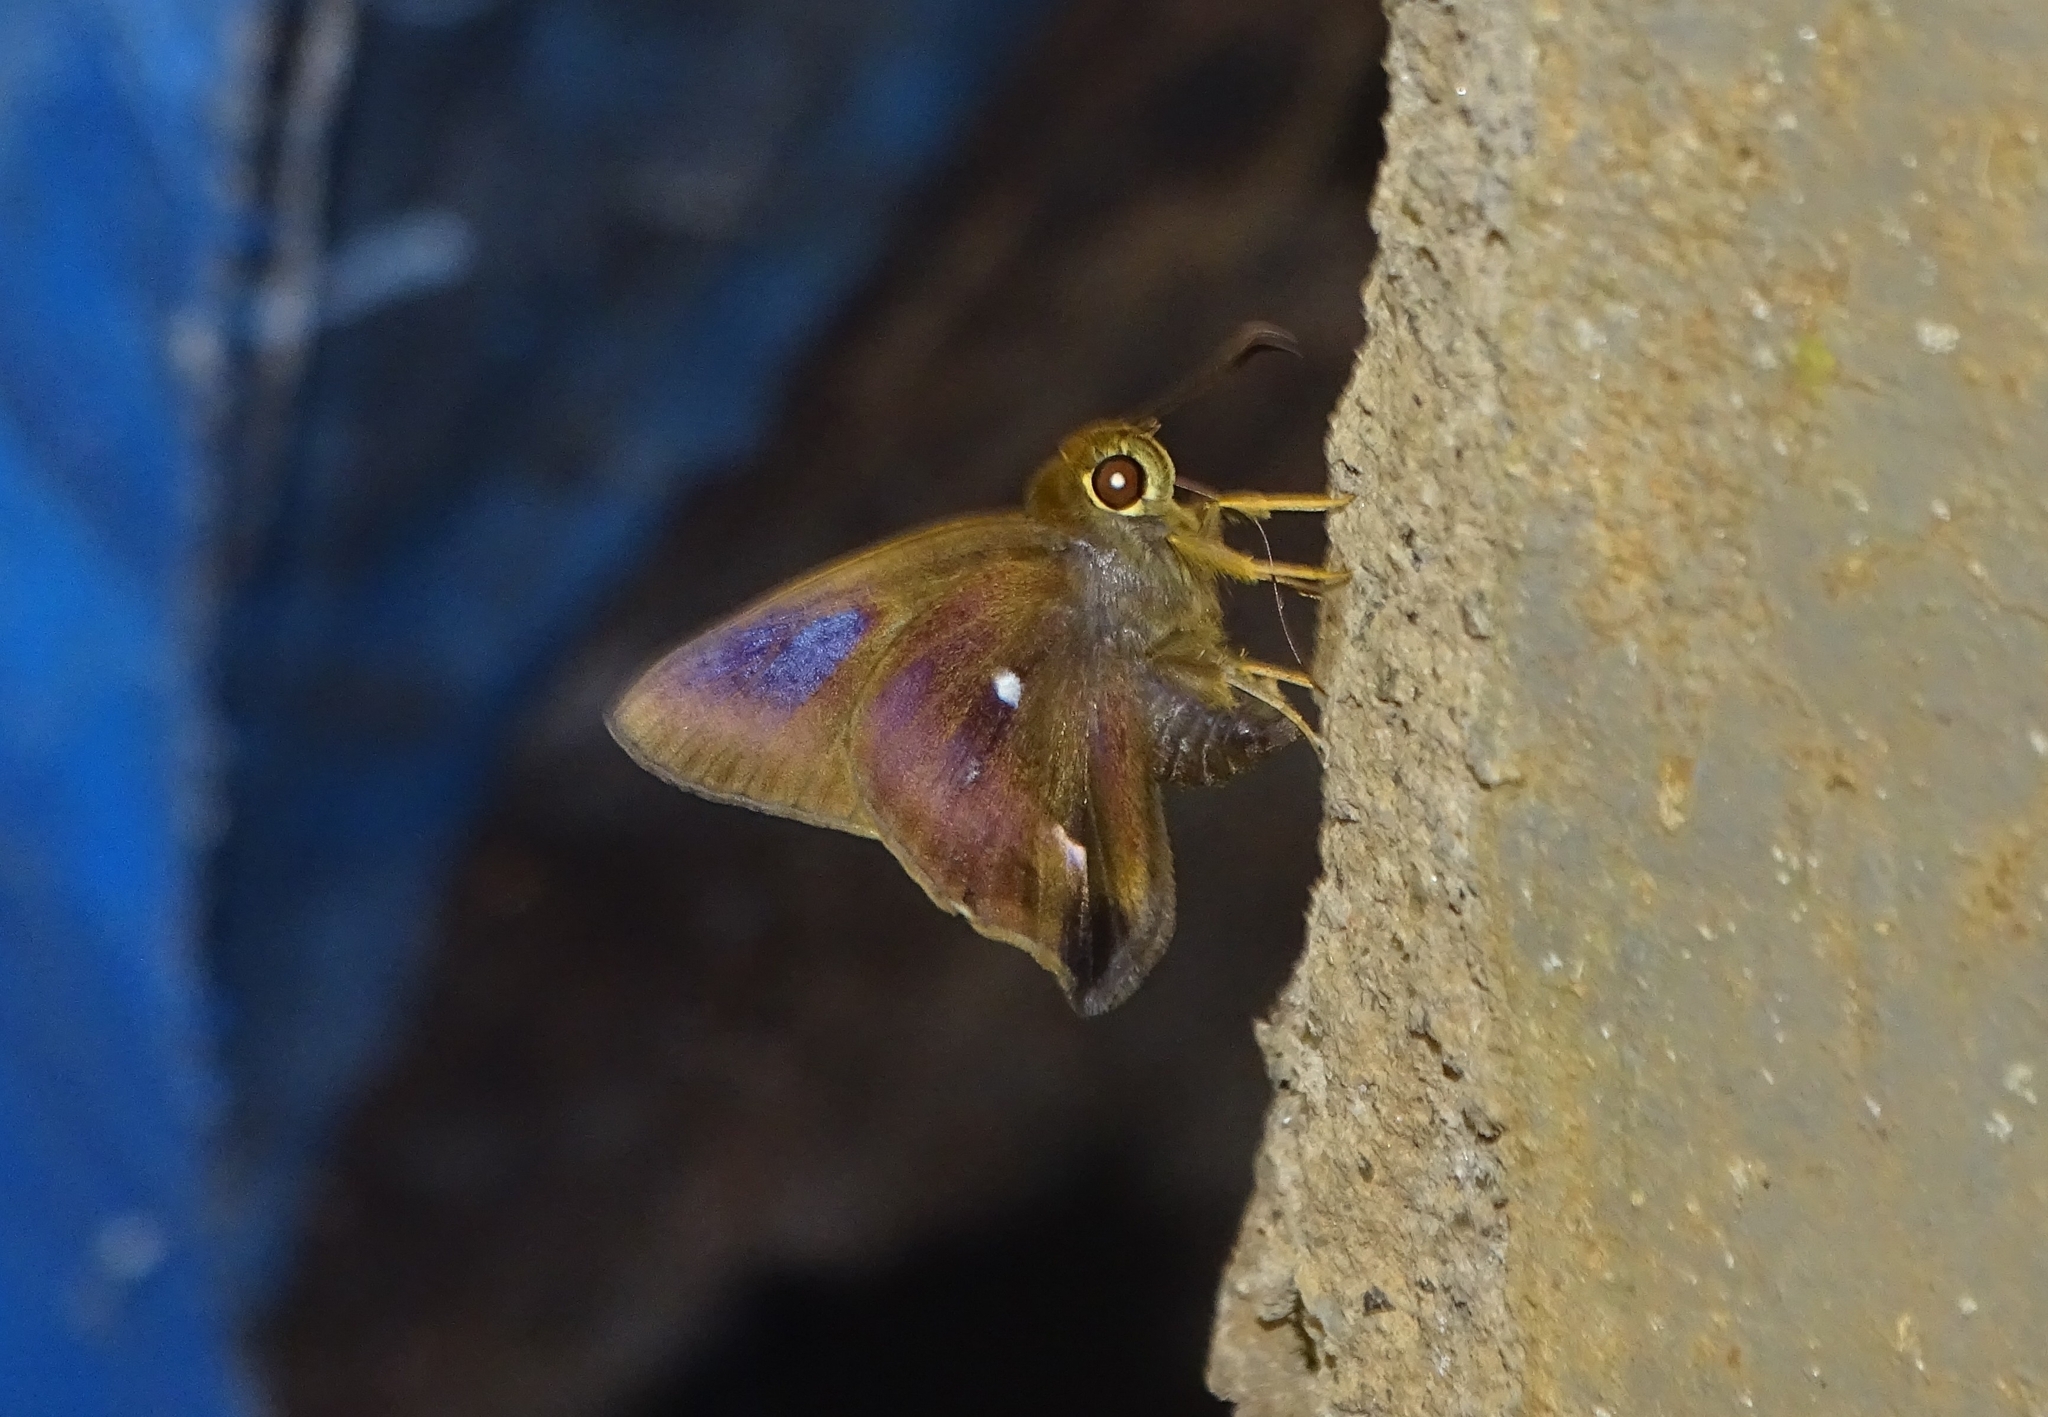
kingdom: Animalia
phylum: Arthropoda
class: Insecta
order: Lepidoptera
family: Hesperiidae
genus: Hasora
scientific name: Hasora badra
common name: Common awl
